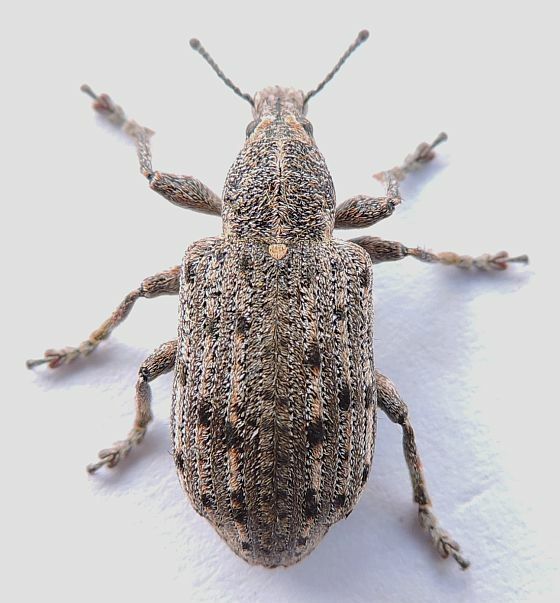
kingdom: Animalia
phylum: Arthropoda
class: Insecta
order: Coleoptera
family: Ithyceridae
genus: Ithycerus
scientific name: Ithycerus noveboracensis
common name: New york weevil
